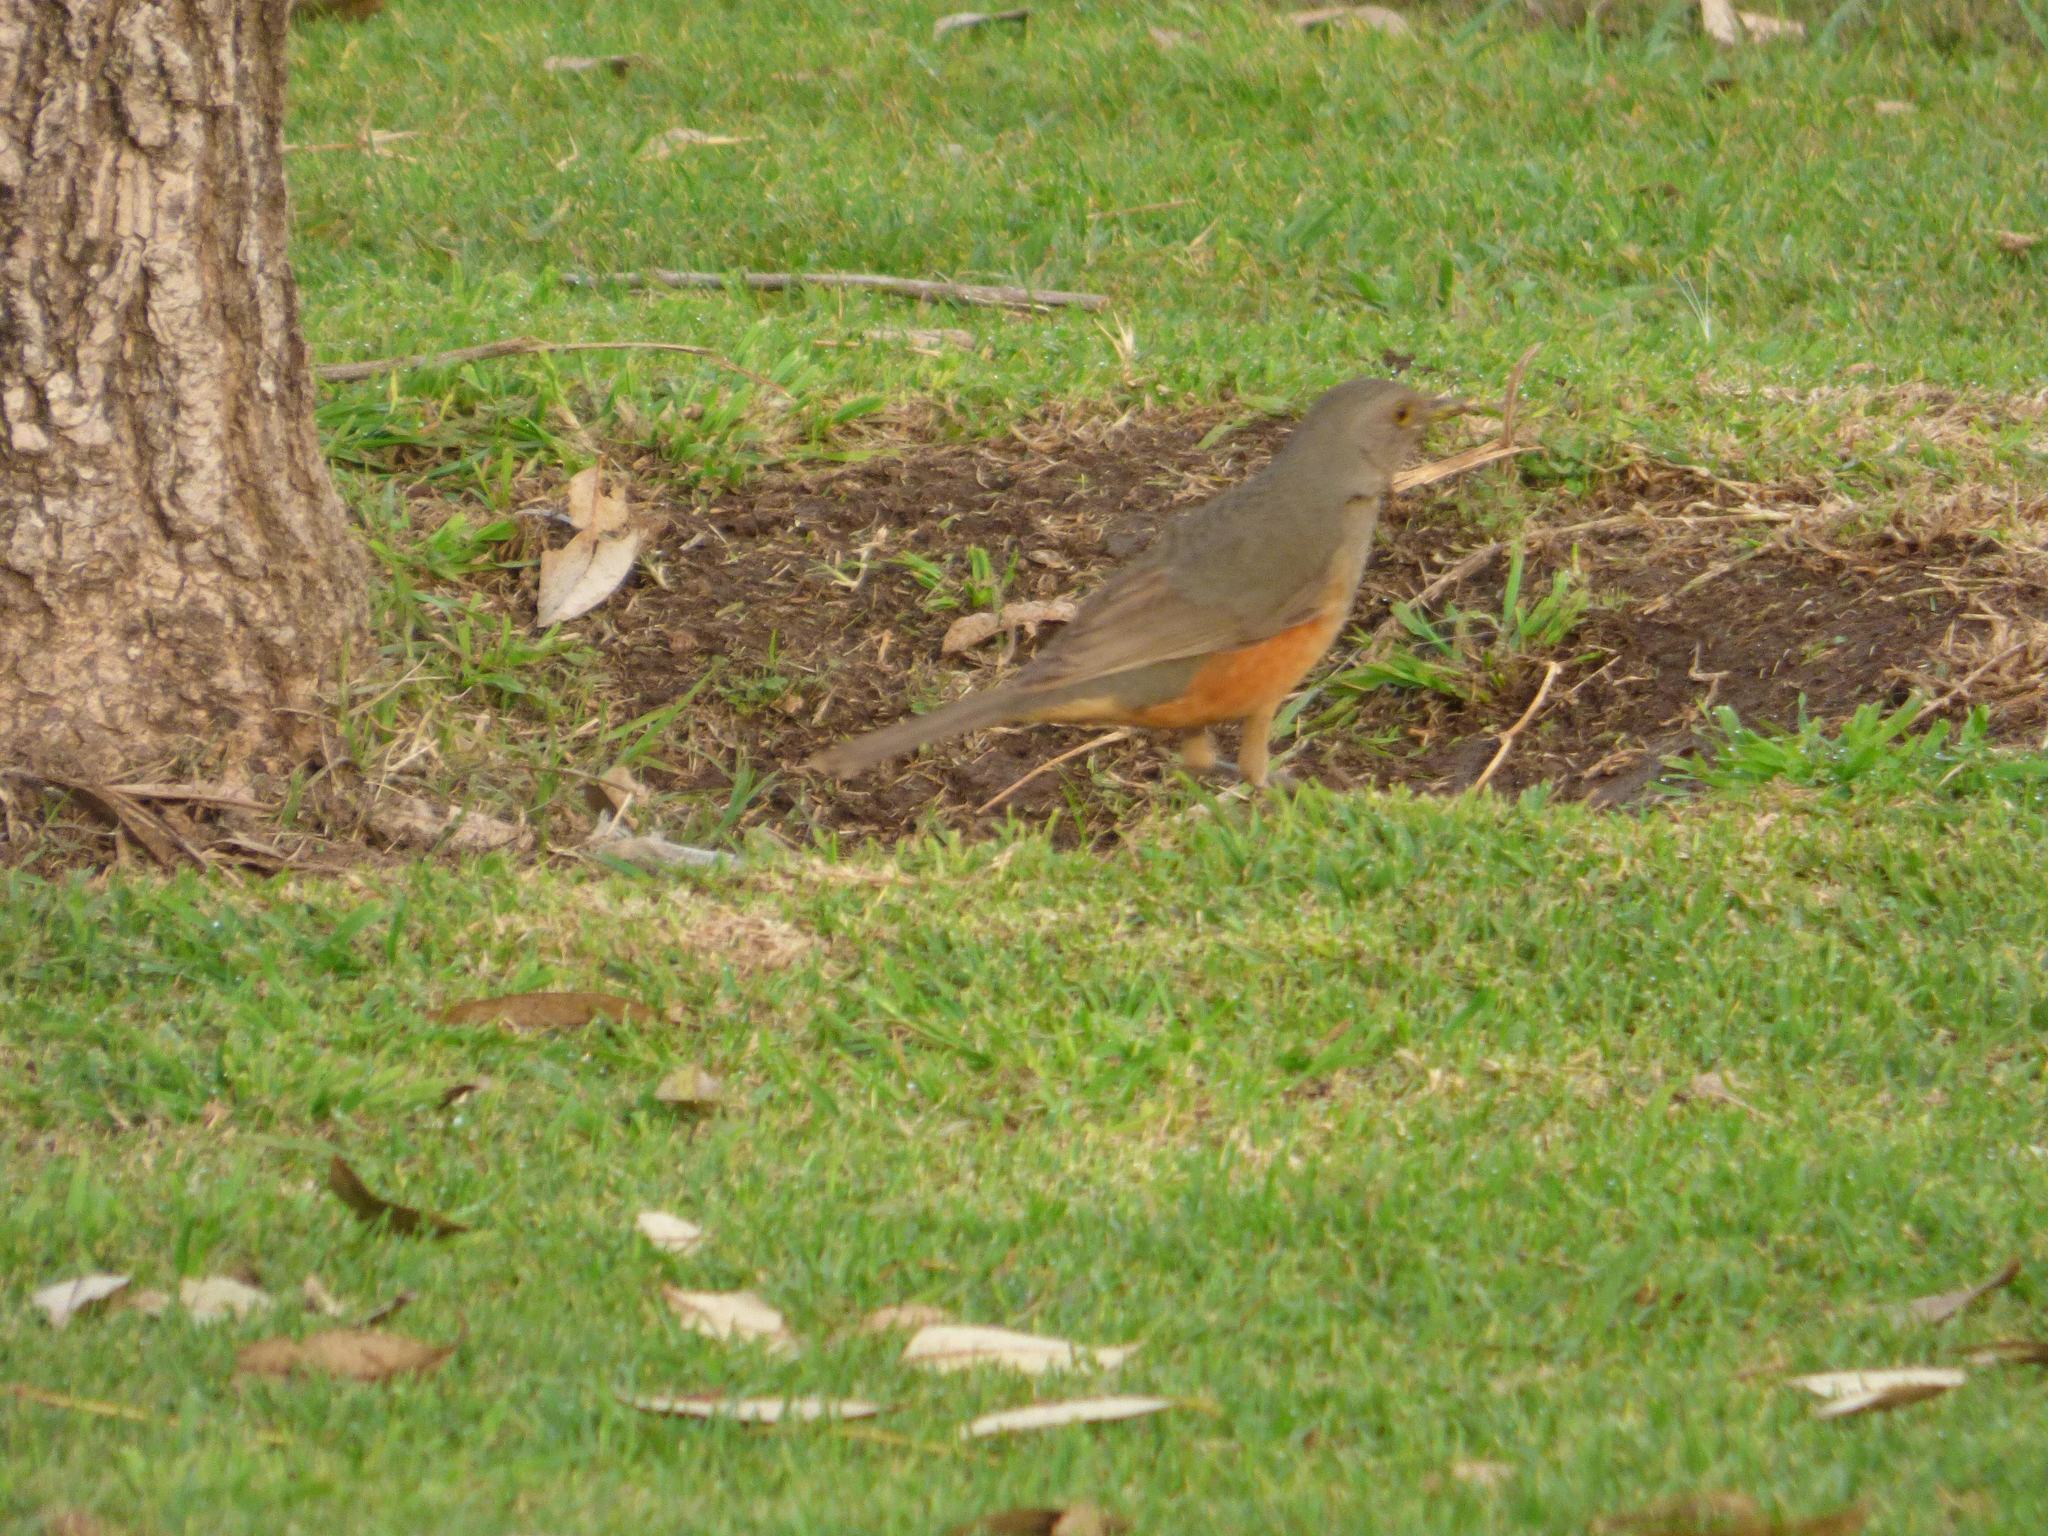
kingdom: Animalia
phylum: Chordata
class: Aves
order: Passeriformes
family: Turdidae
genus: Turdus
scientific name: Turdus rufiventris
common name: Rufous-bellied thrush
